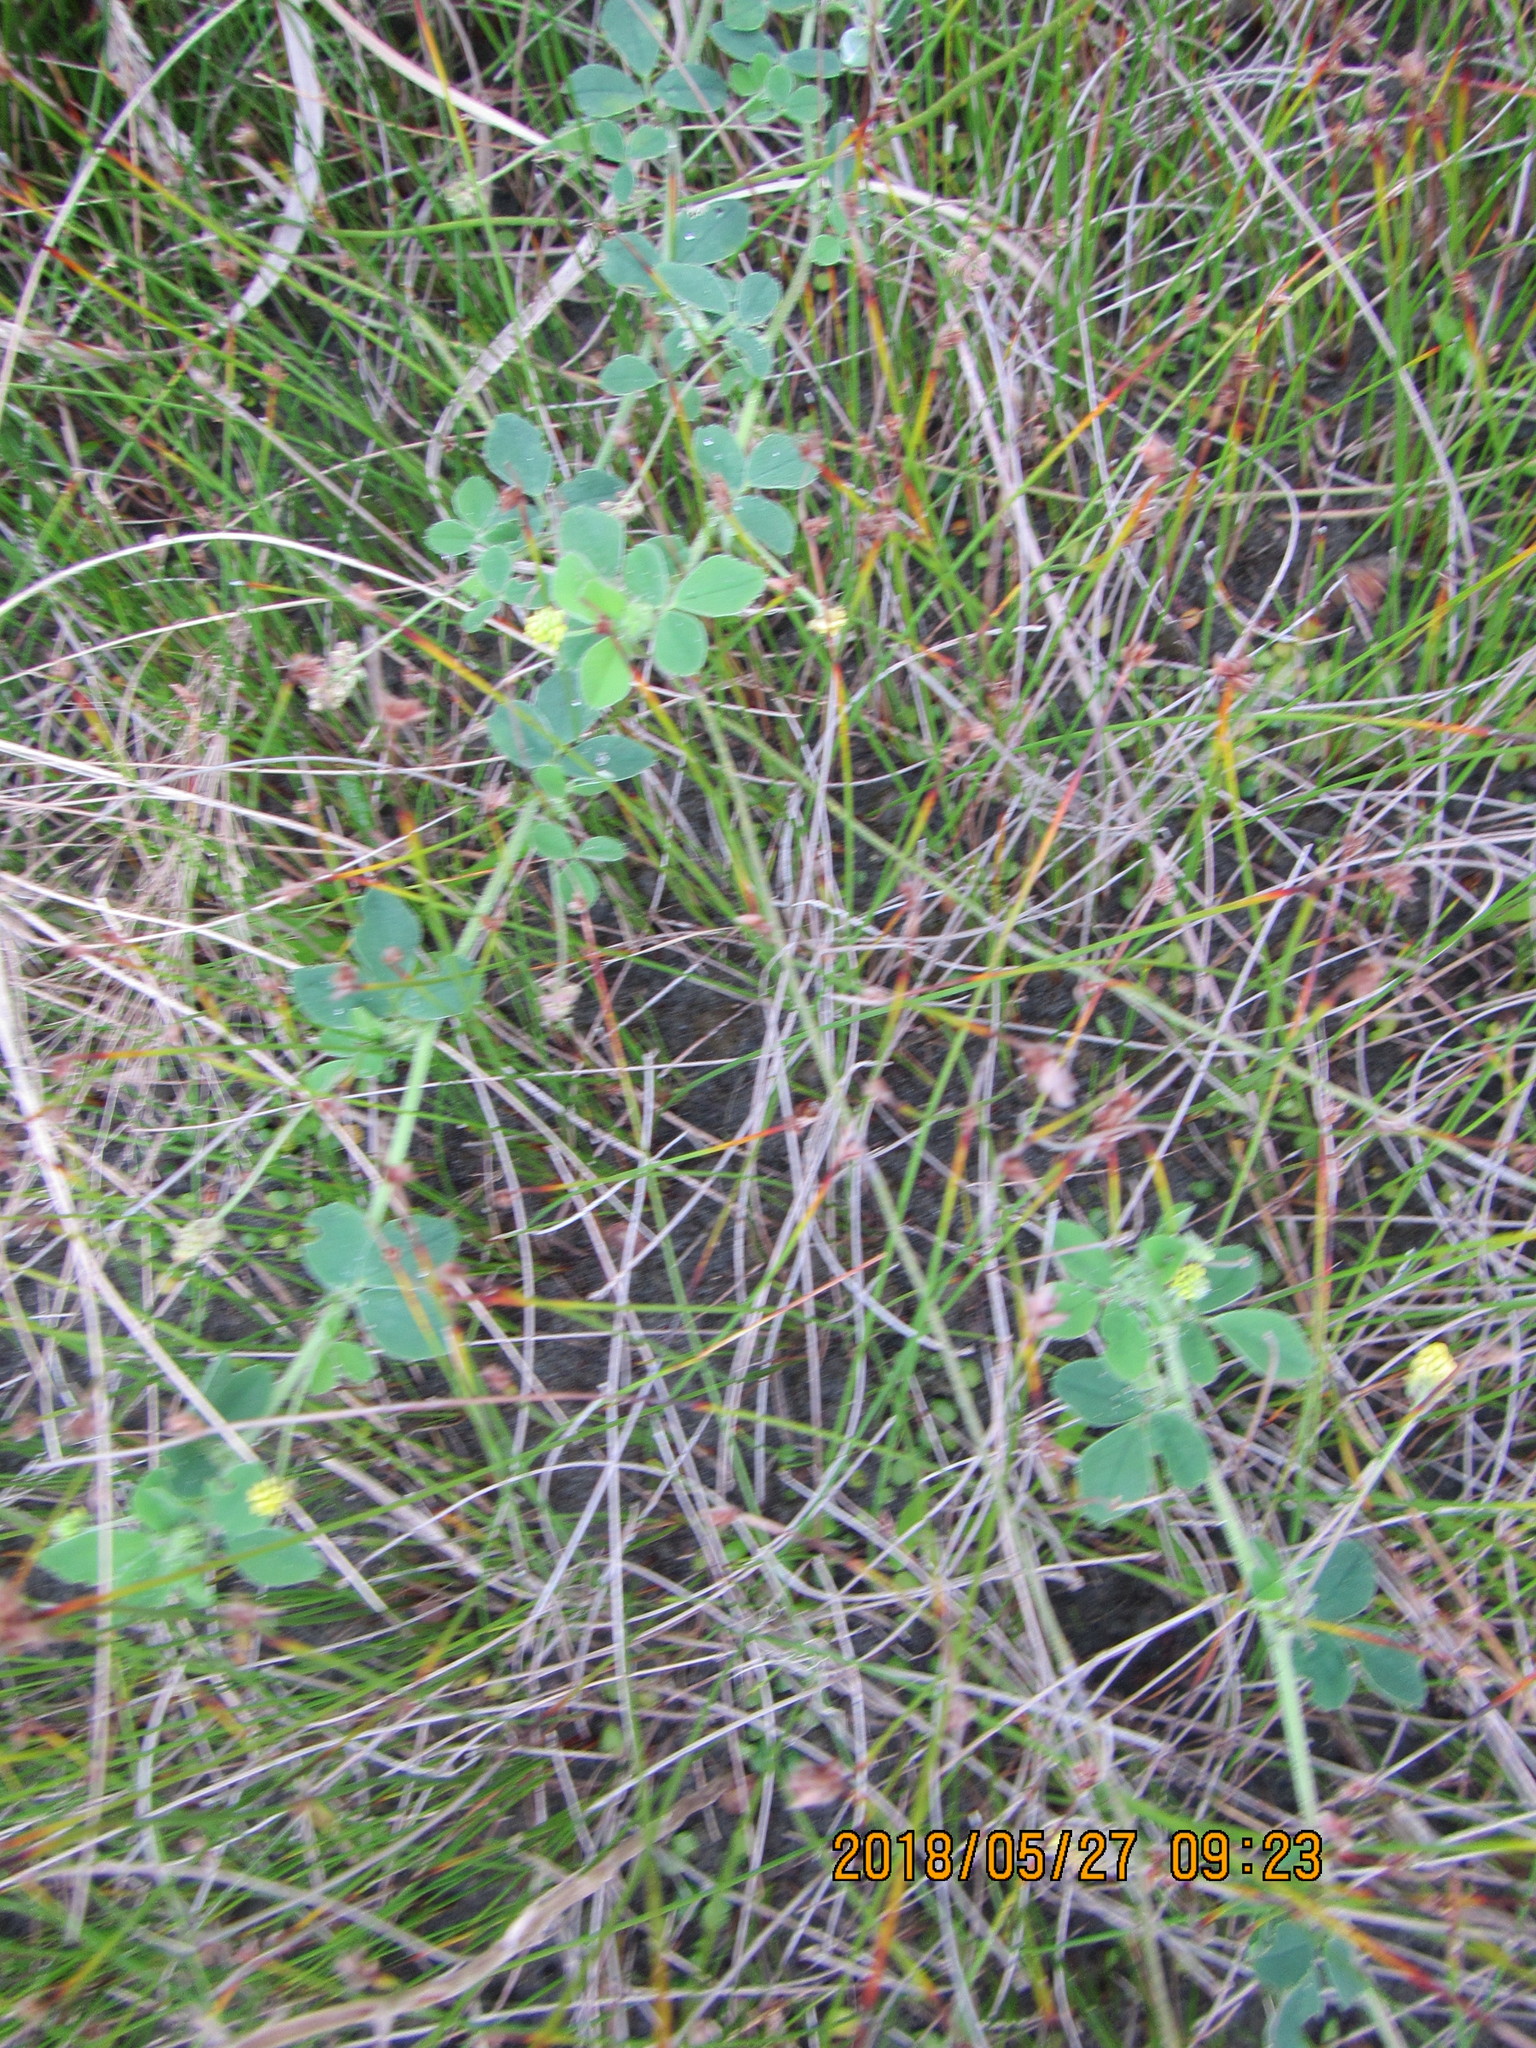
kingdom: Plantae
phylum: Tracheophyta
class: Magnoliopsida
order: Fabales
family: Fabaceae
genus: Melilotus
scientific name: Melilotus indicus
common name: Small melilot
